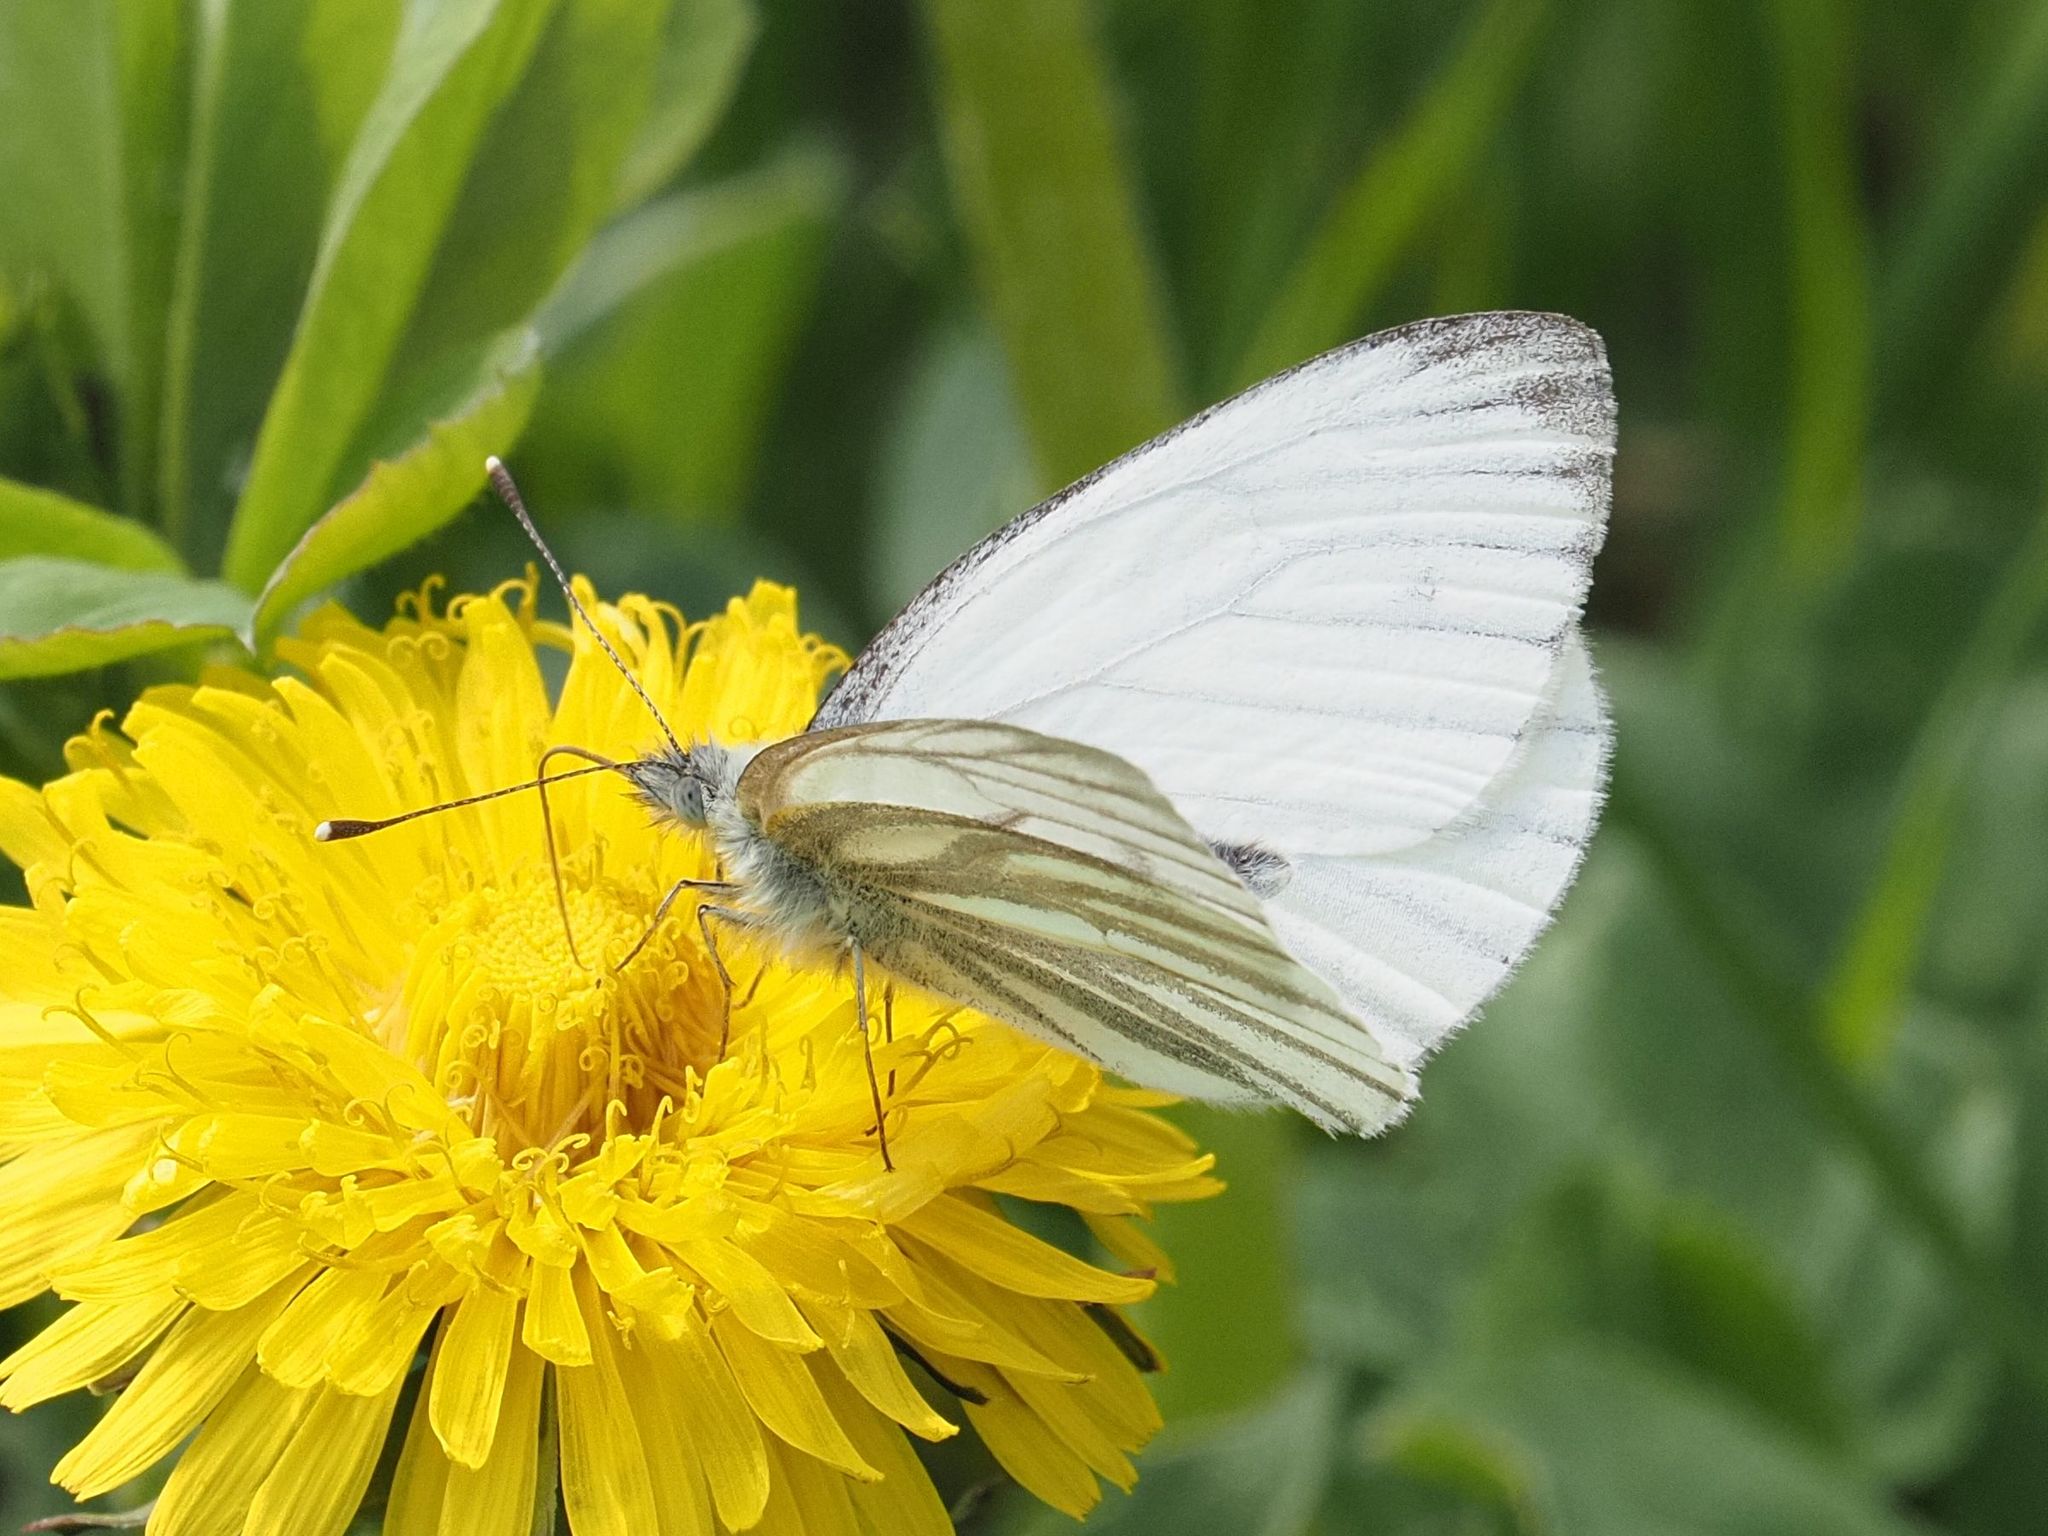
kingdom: Animalia
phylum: Arthropoda
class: Insecta
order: Lepidoptera
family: Pieridae
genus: Pieris
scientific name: Pieris napi
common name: Green-veined white
